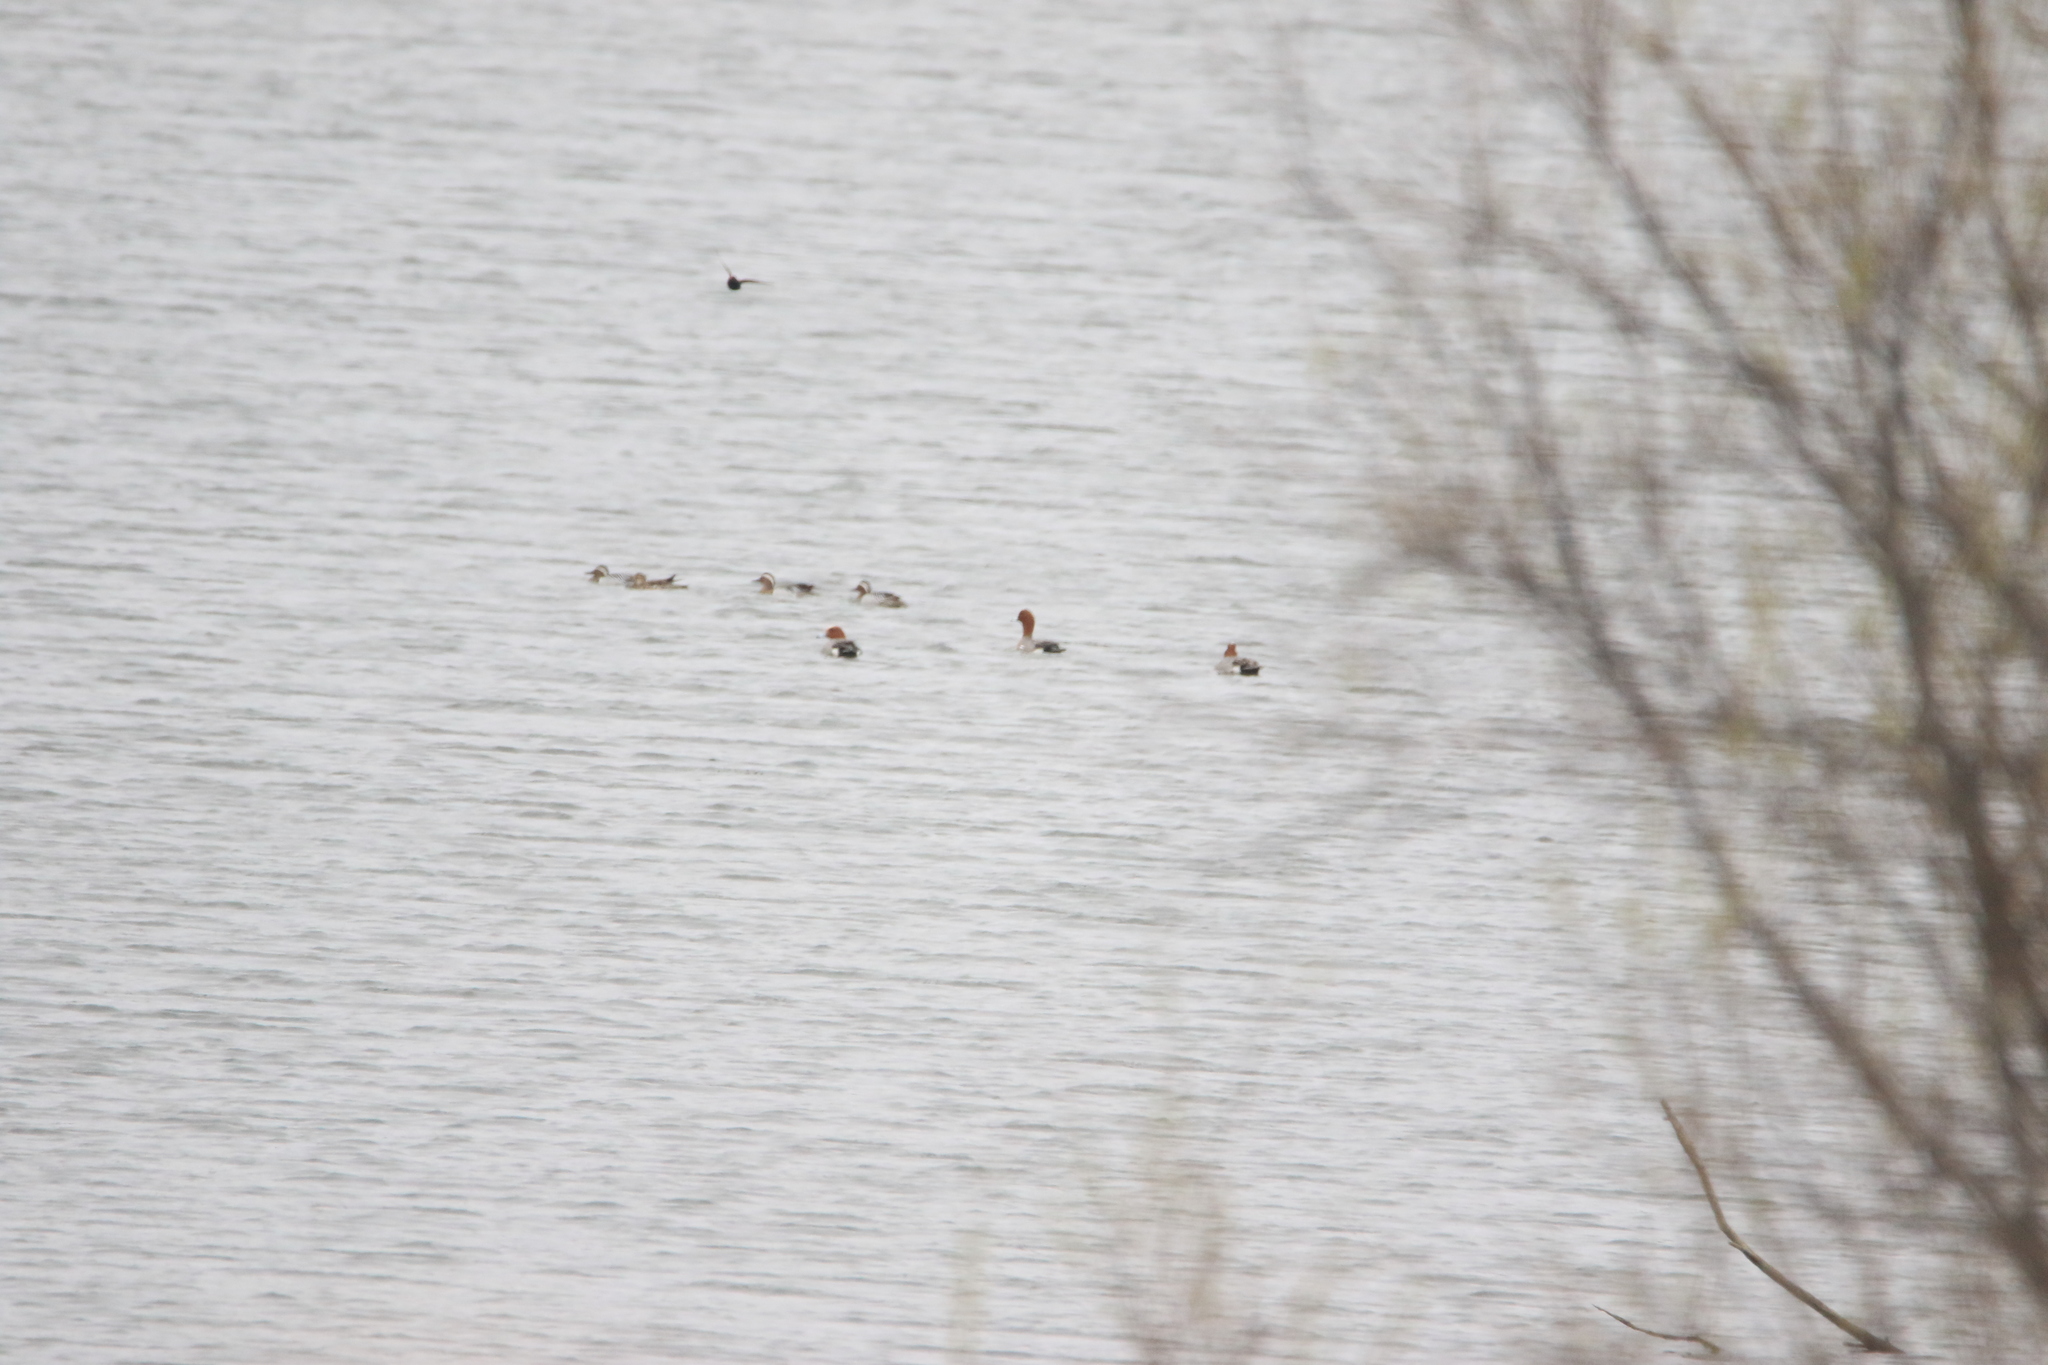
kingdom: Animalia
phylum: Chordata
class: Aves
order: Anseriformes
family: Anatidae
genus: Spatula
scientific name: Spatula querquedula
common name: Garganey
